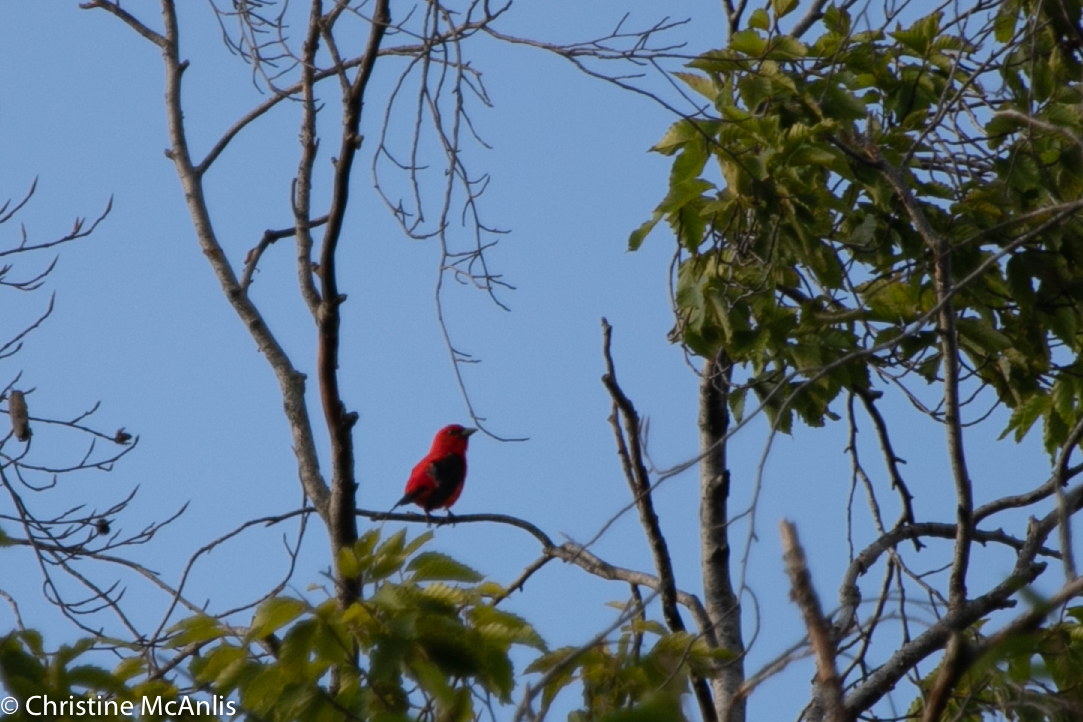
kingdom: Animalia
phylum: Chordata
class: Aves
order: Passeriformes
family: Cardinalidae
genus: Piranga
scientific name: Piranga olivacea
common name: Scarlet tanager
